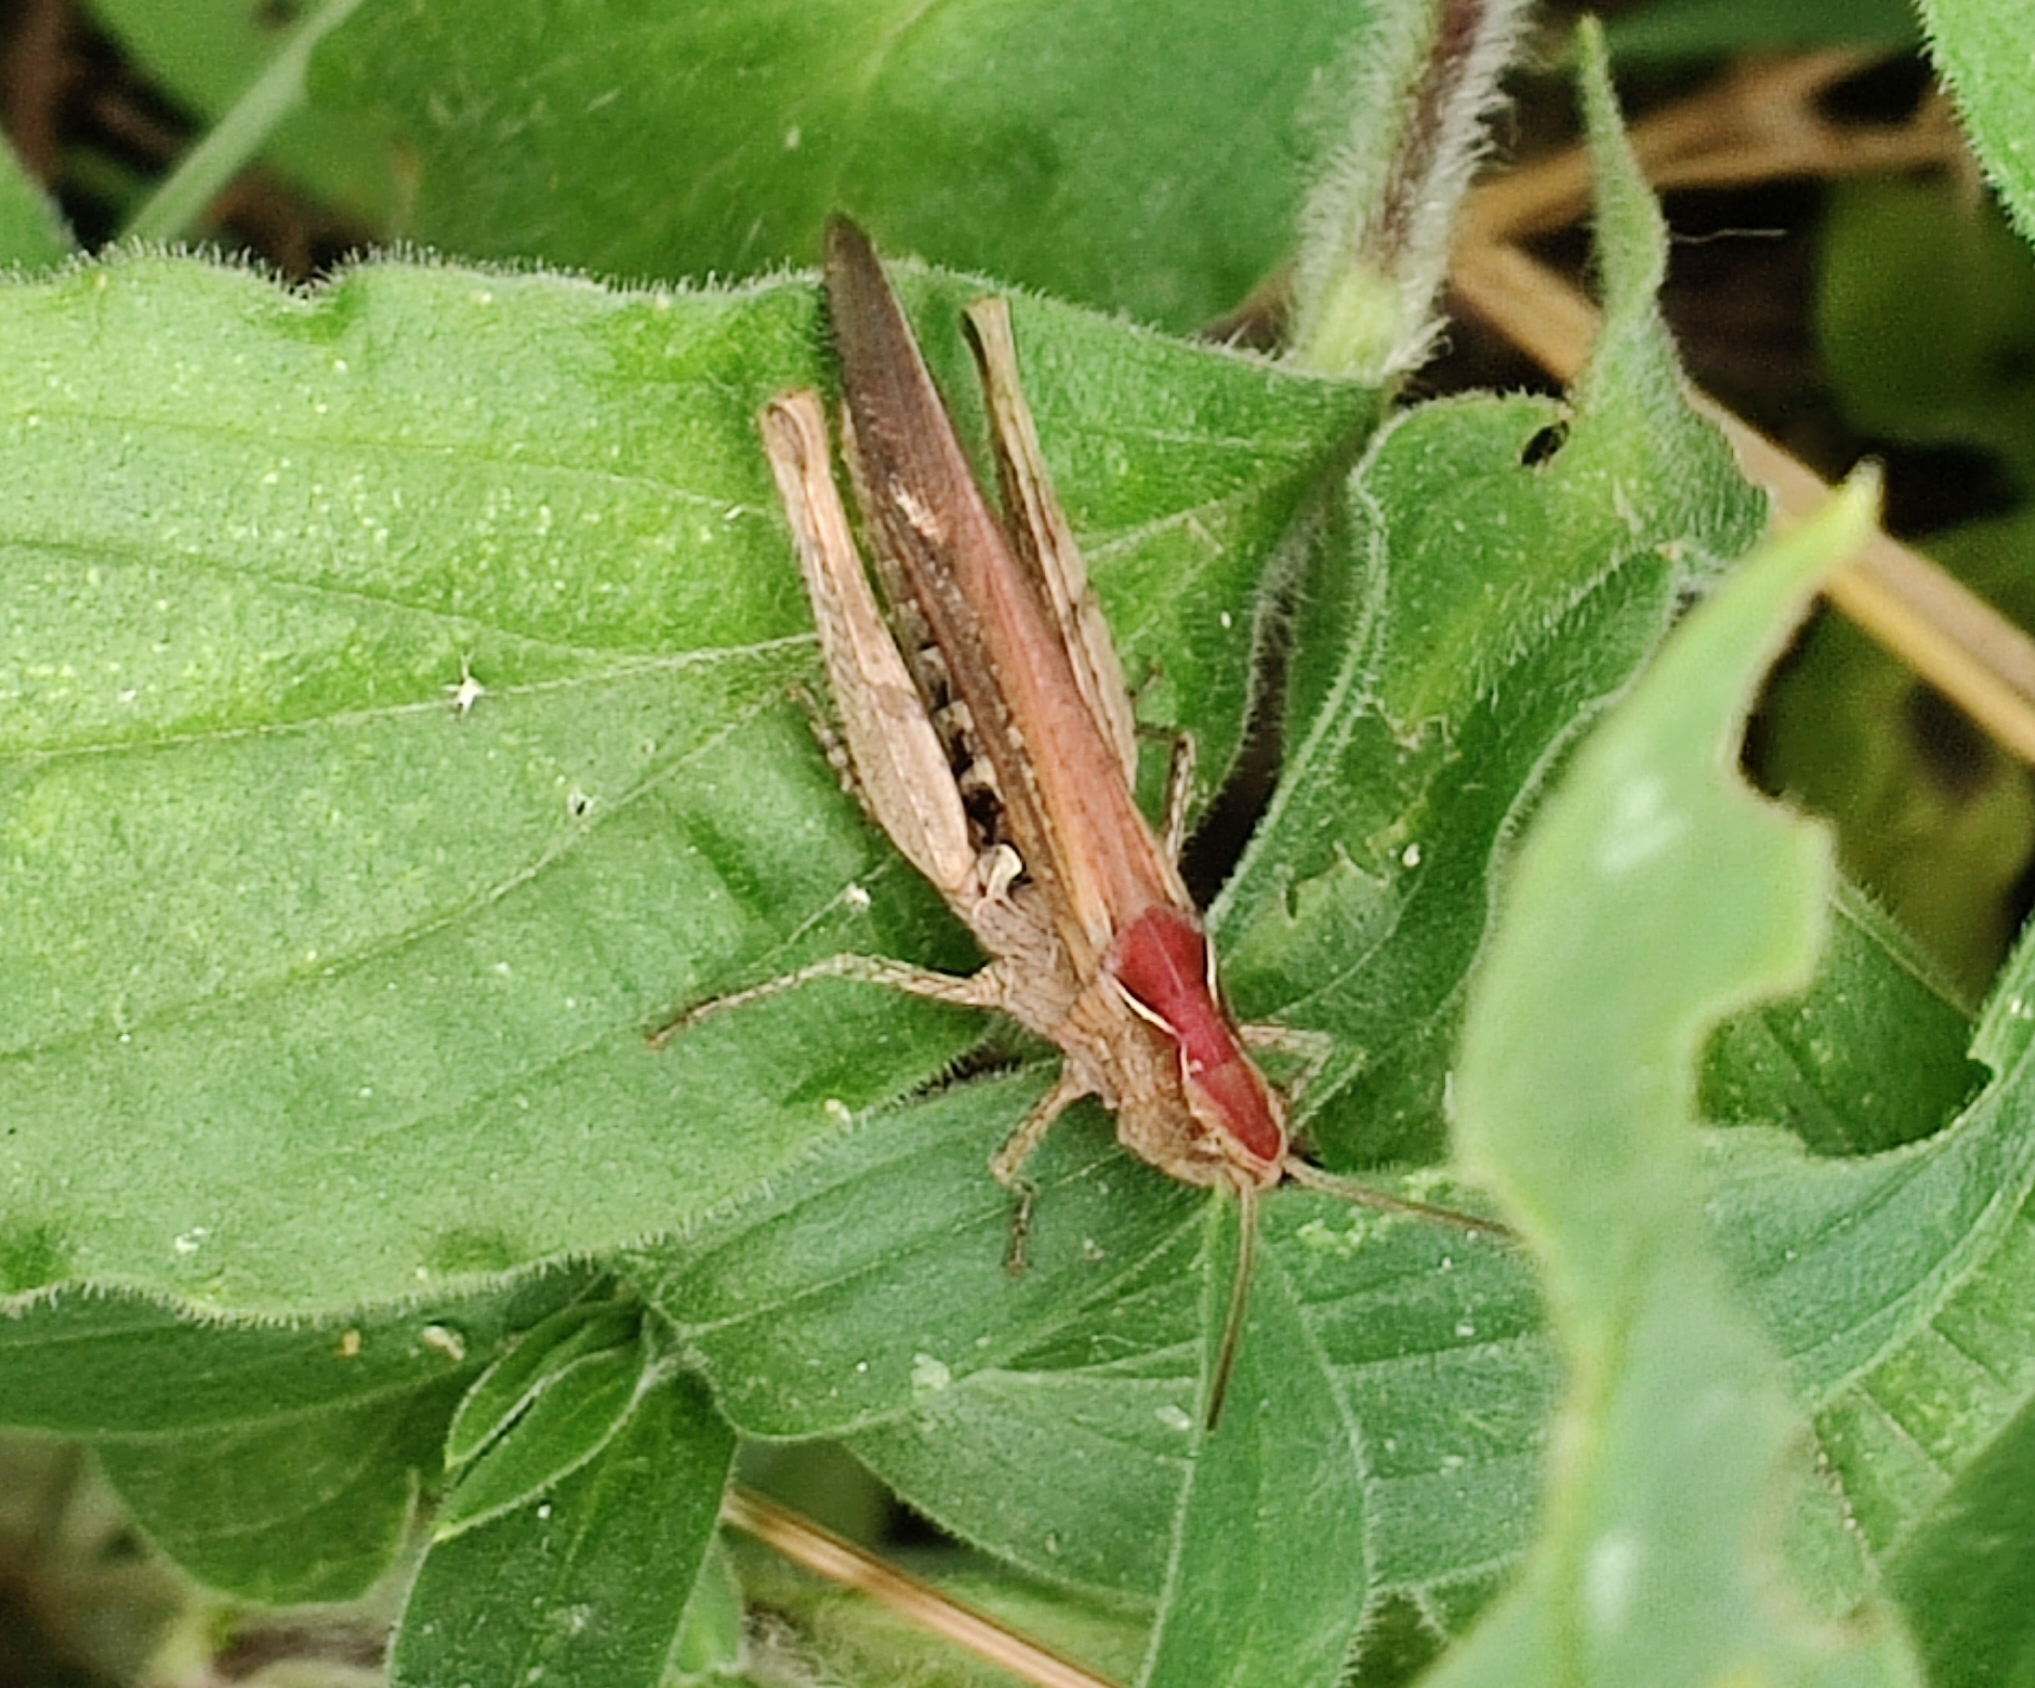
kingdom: Animalia
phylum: Arthropoda
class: Insecta
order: Orthoptera
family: Acrididae
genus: Chorthippus
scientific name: Chorthippus brunneus
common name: Field grasshopper
